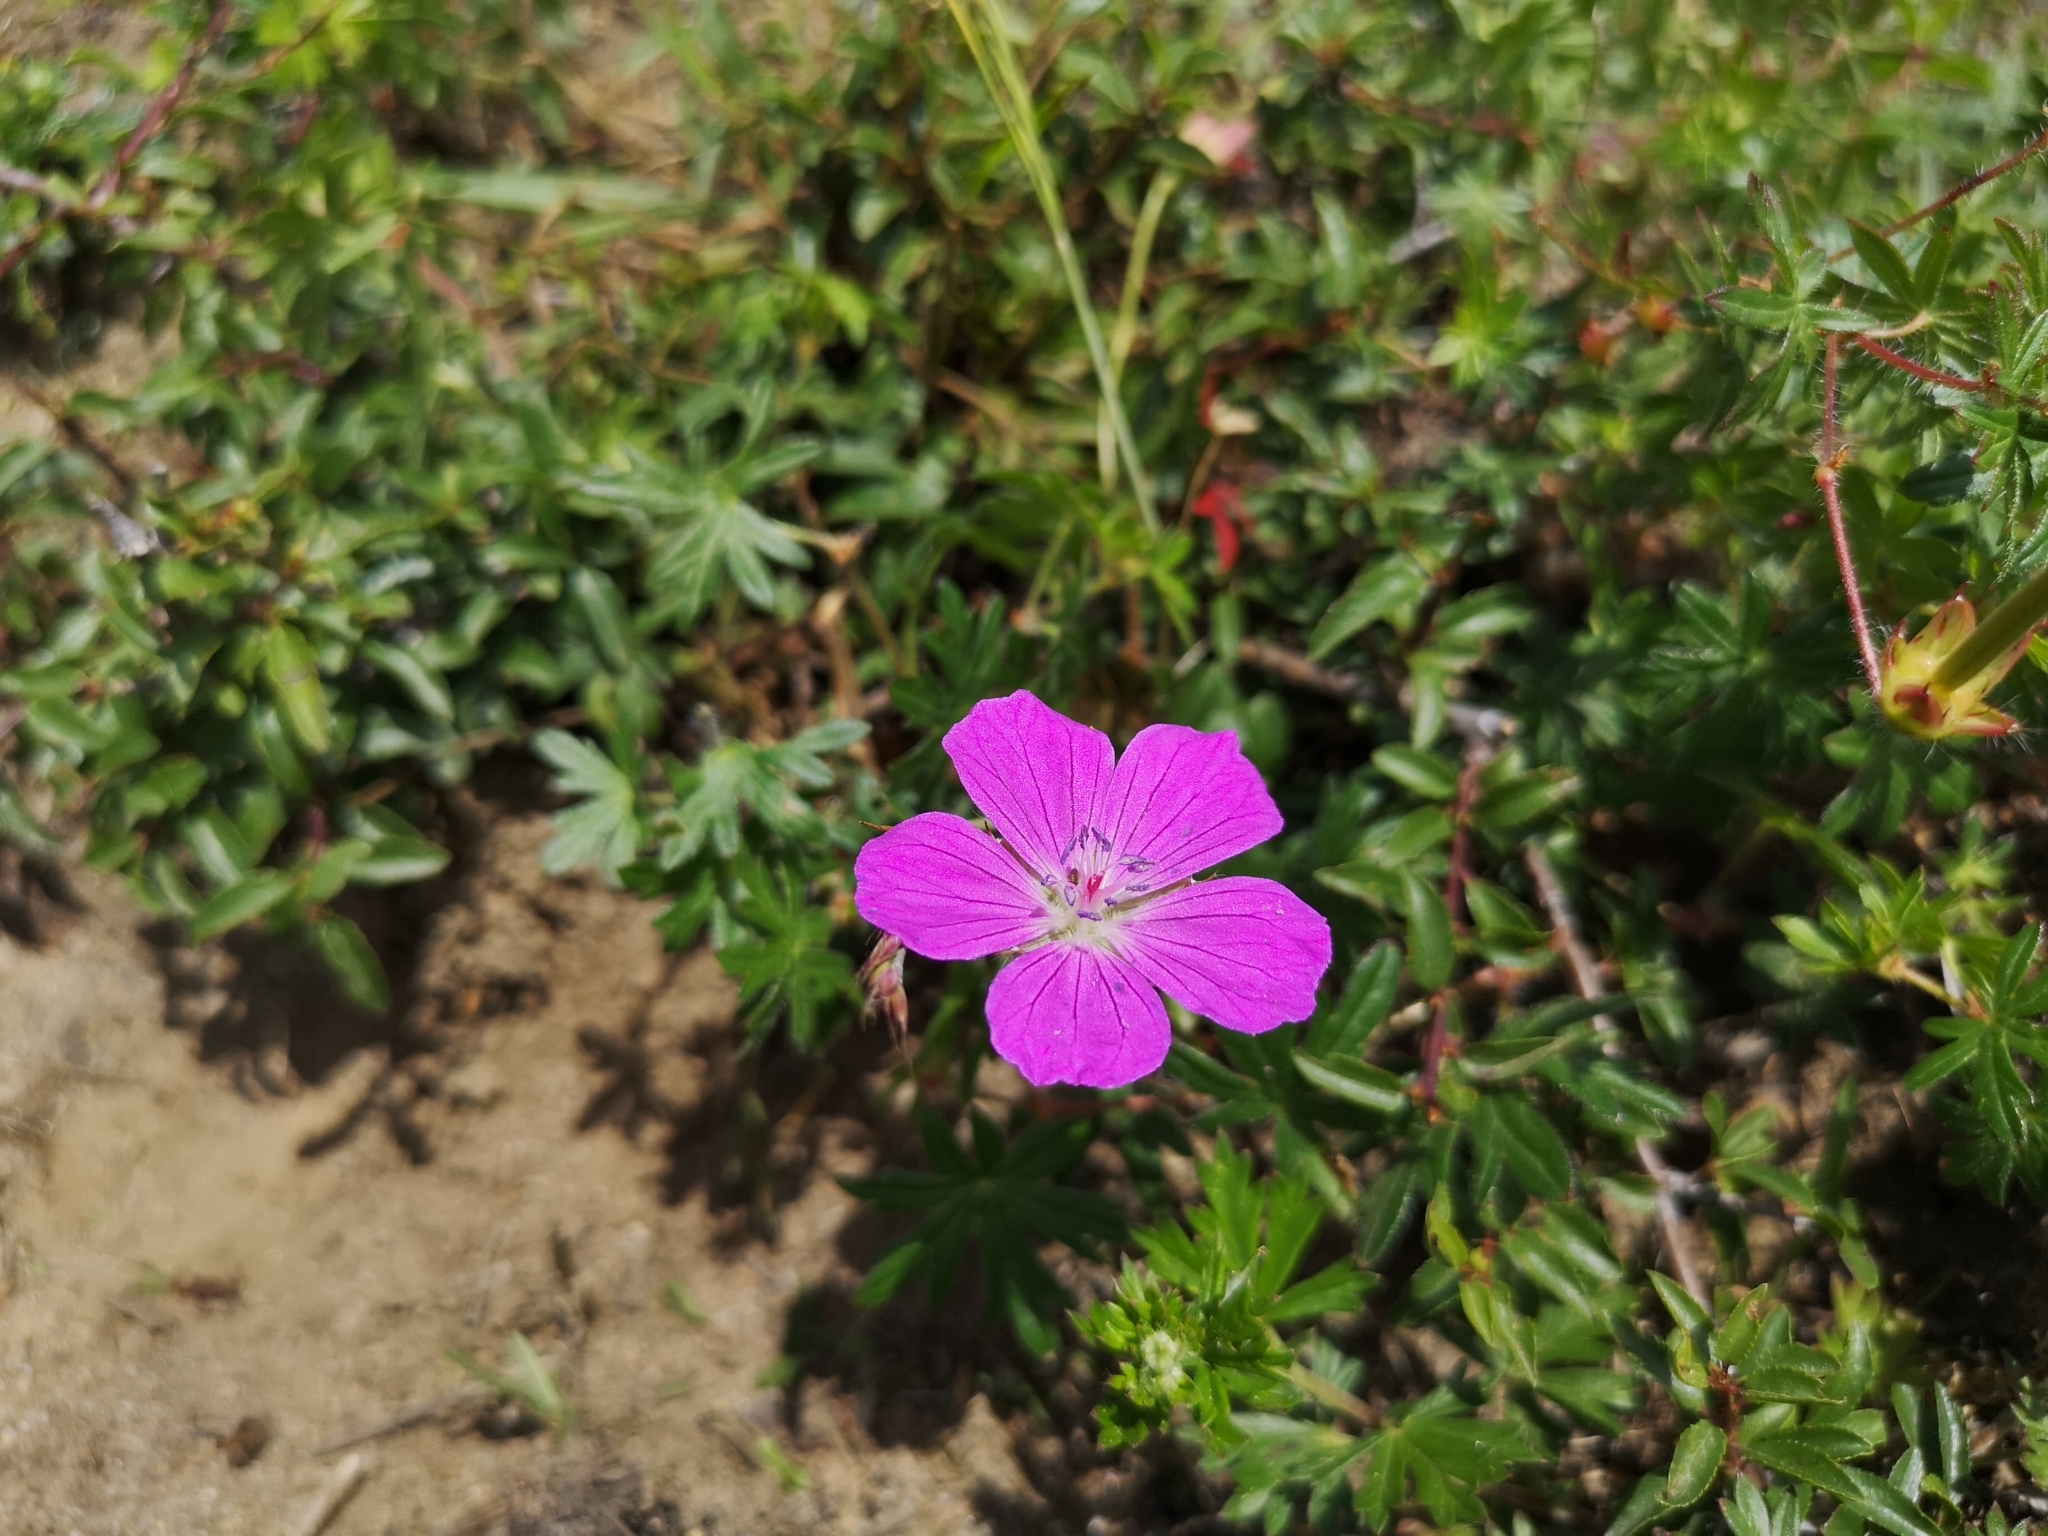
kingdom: Plantae
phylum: Tracheophyta
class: Magnoliopsida
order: Geraniales
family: Geraniaceae
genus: Geranium
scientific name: Geranium sanguineum
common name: Bloody crane's-bill
